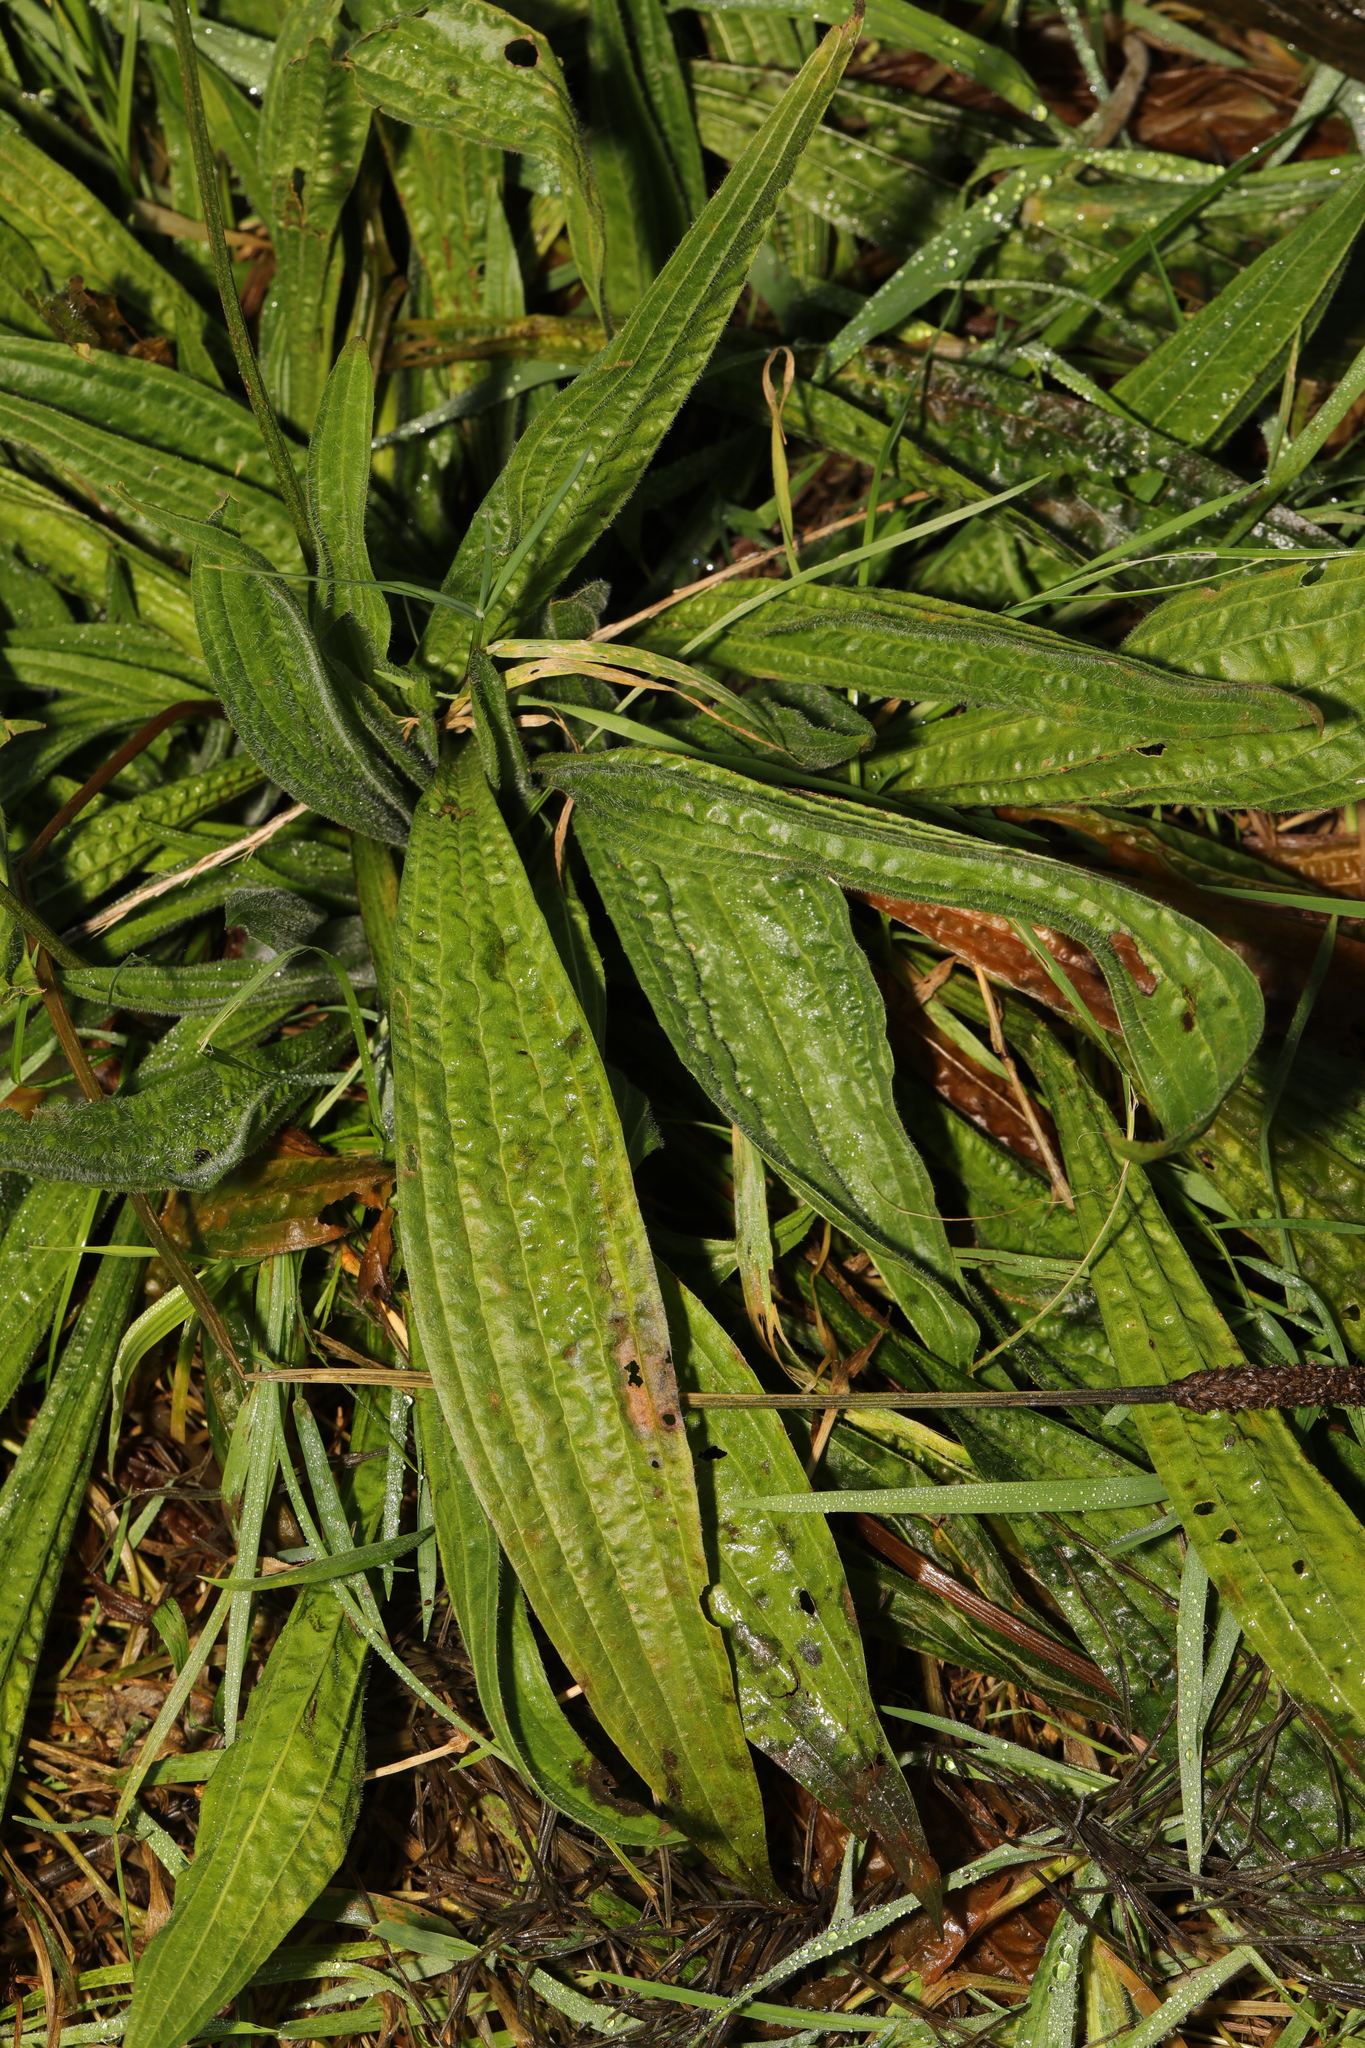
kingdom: Plantae
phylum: Tracheophyta
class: Magnoliopsida
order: Lamiales
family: Plantaginaceae
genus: Plantago
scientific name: Plantago lanceolata
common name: Ribwort plantain
